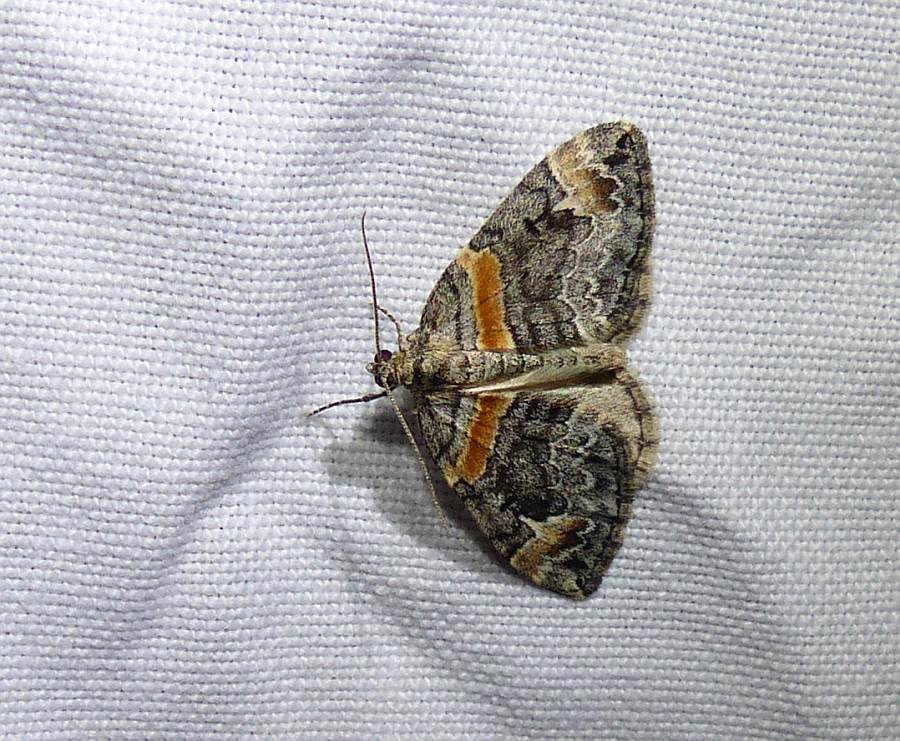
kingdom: Animalia
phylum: Arthropoda
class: Insecta
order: Lepidoptera
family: Geometridae
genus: Dysstroma
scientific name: Dysstroma hersiliata
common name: Orange-barred carpet
